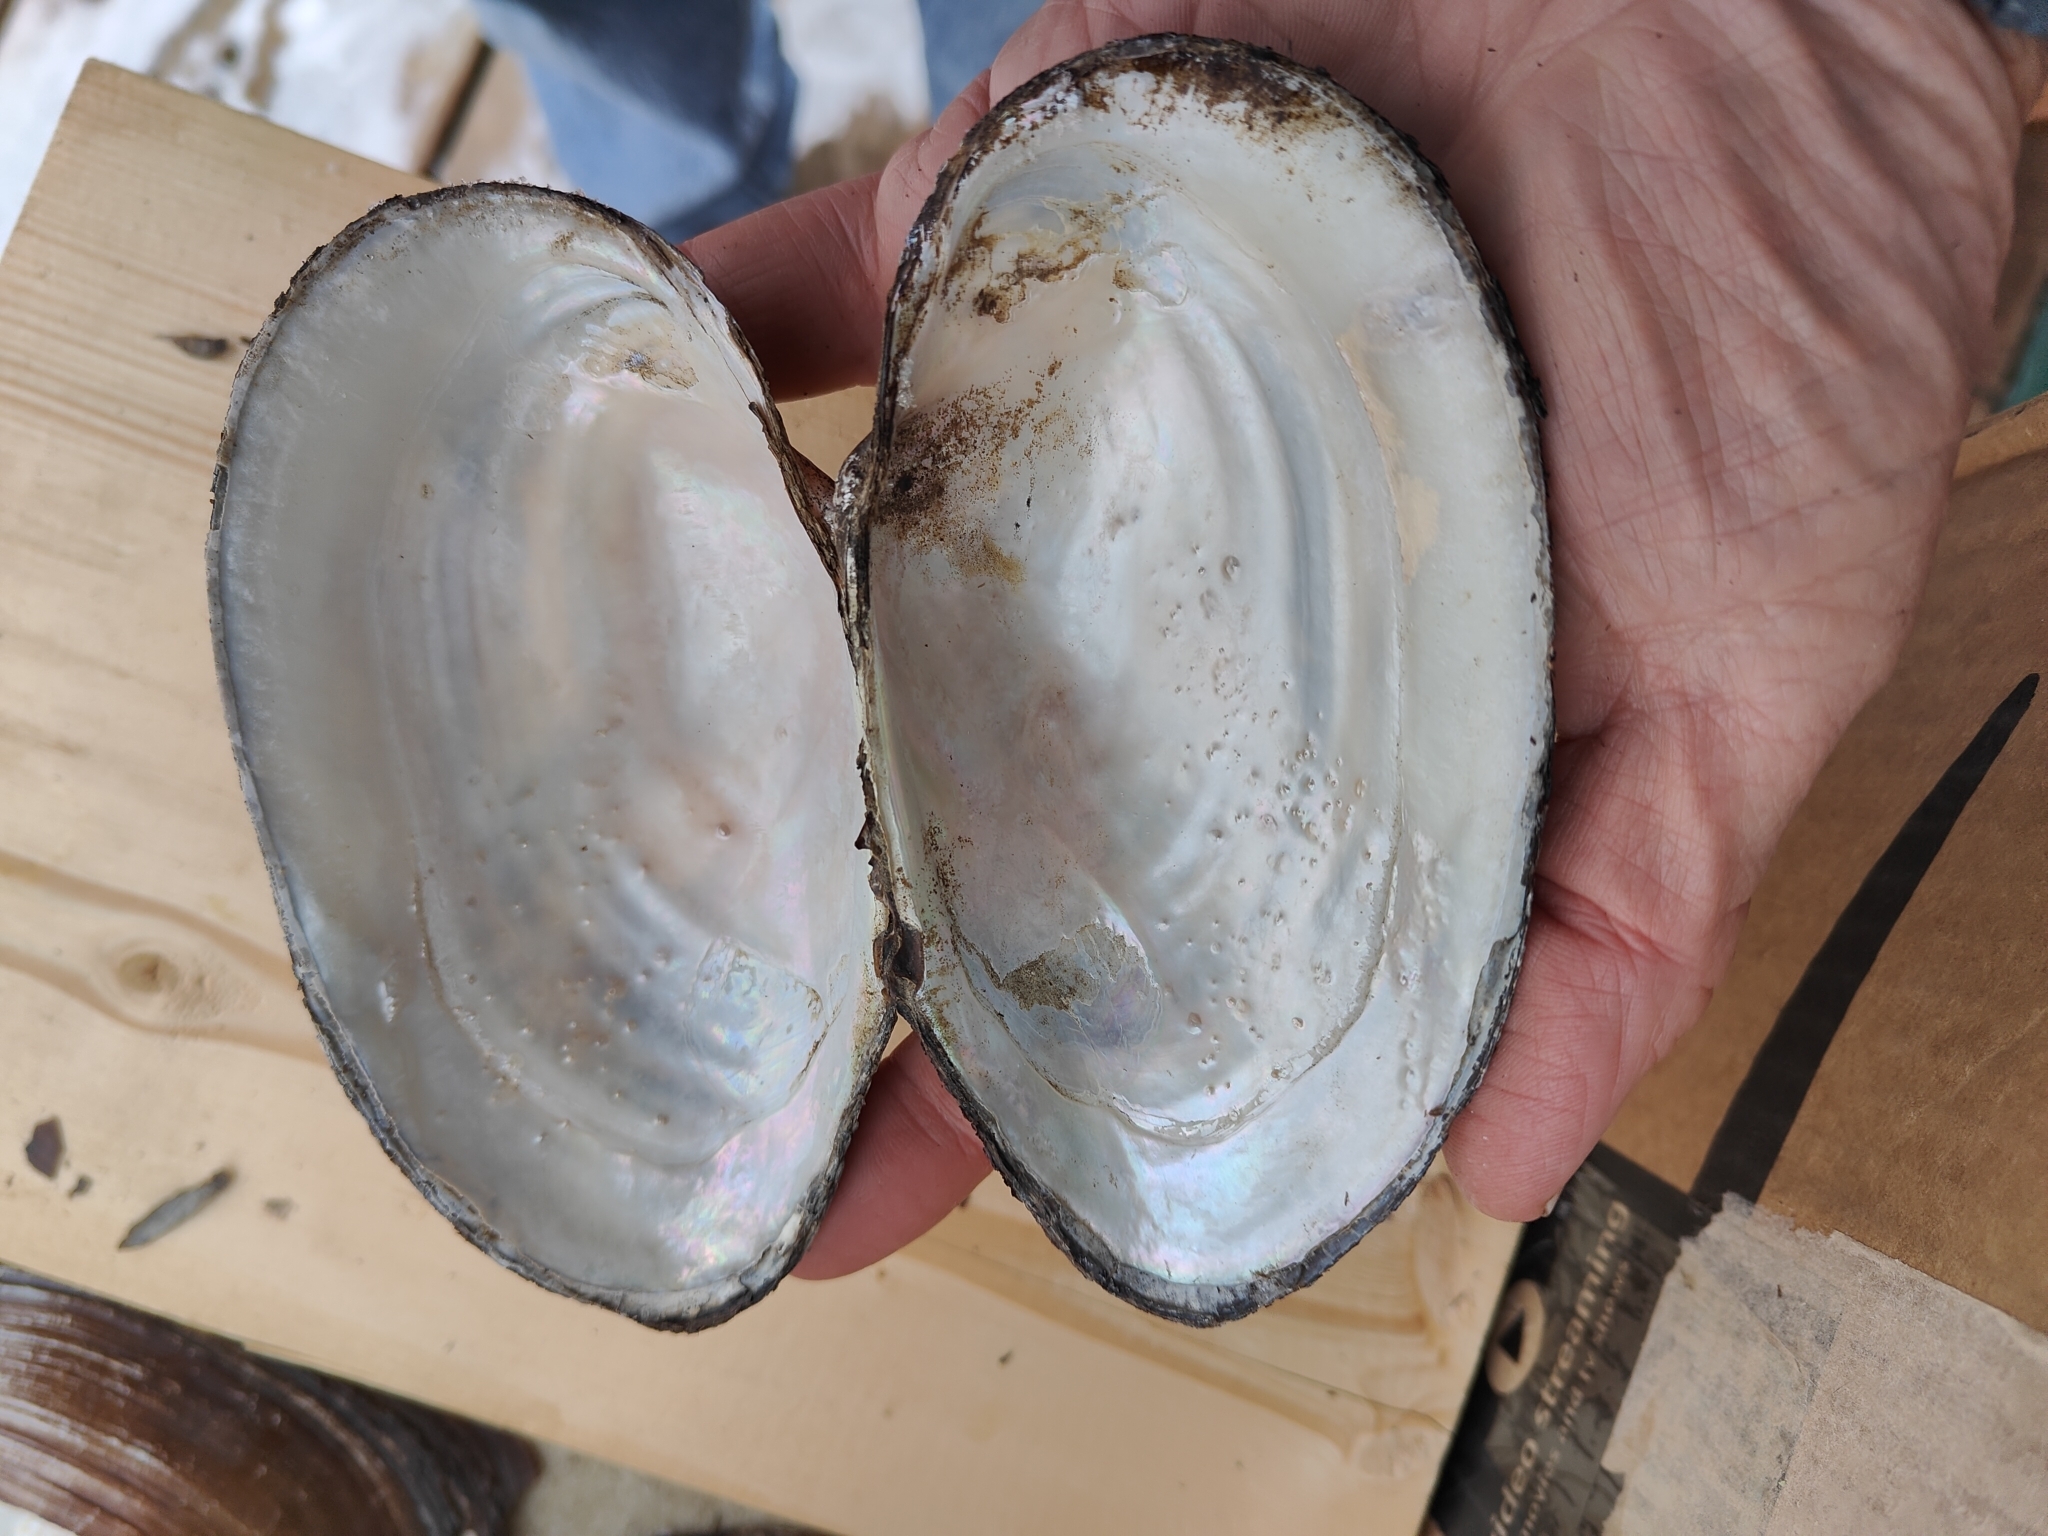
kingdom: Animalia
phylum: Mollusca
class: Bivalvia
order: Unionida
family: Unionidae
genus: Pyganodon
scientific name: Pyganodon grandis
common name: Giant floater
